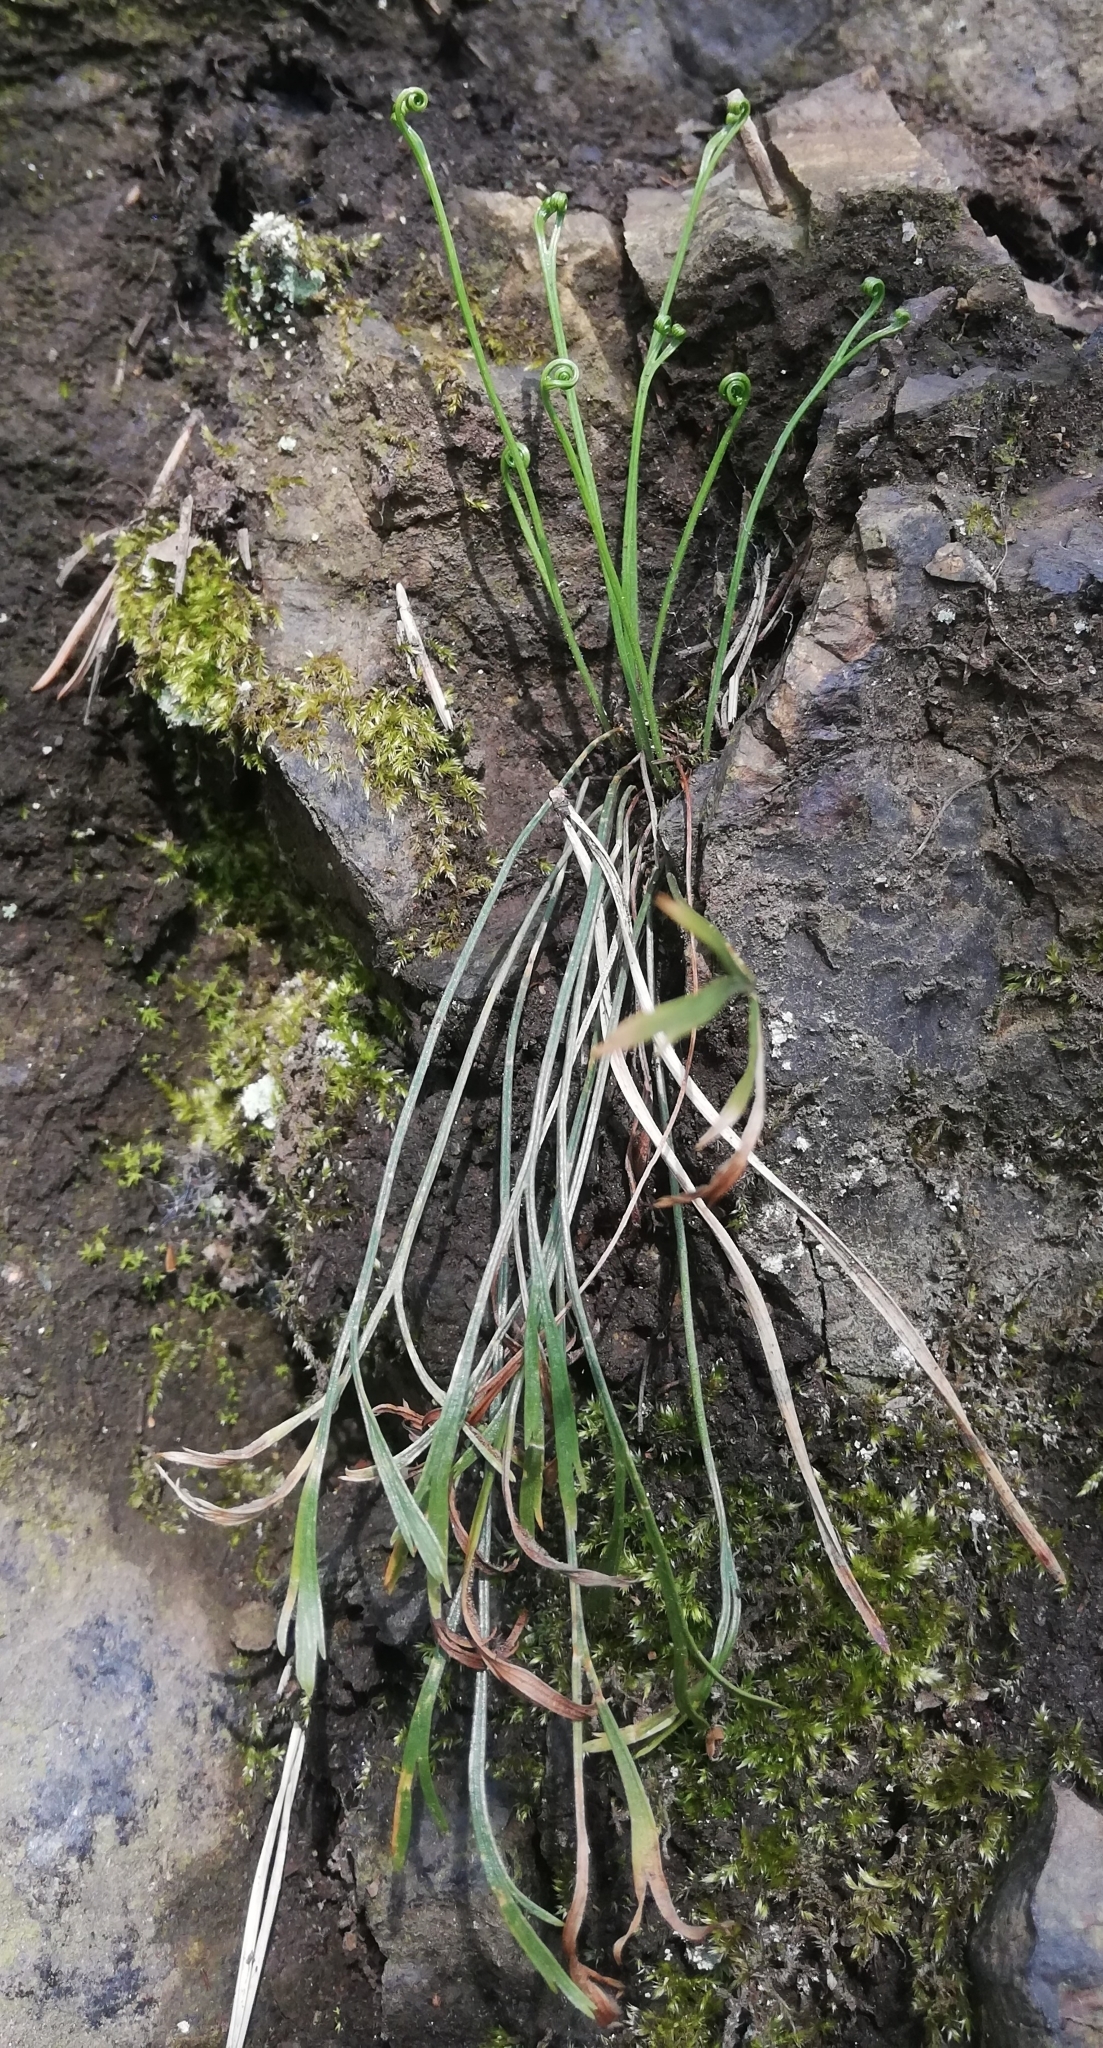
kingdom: Plantae
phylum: Tracheophyta
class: Polypodiopsida
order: Polypodiales
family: Aspleniaceae
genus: Asplenium
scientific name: Asplenium septentrionale
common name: Forked spleenwort
